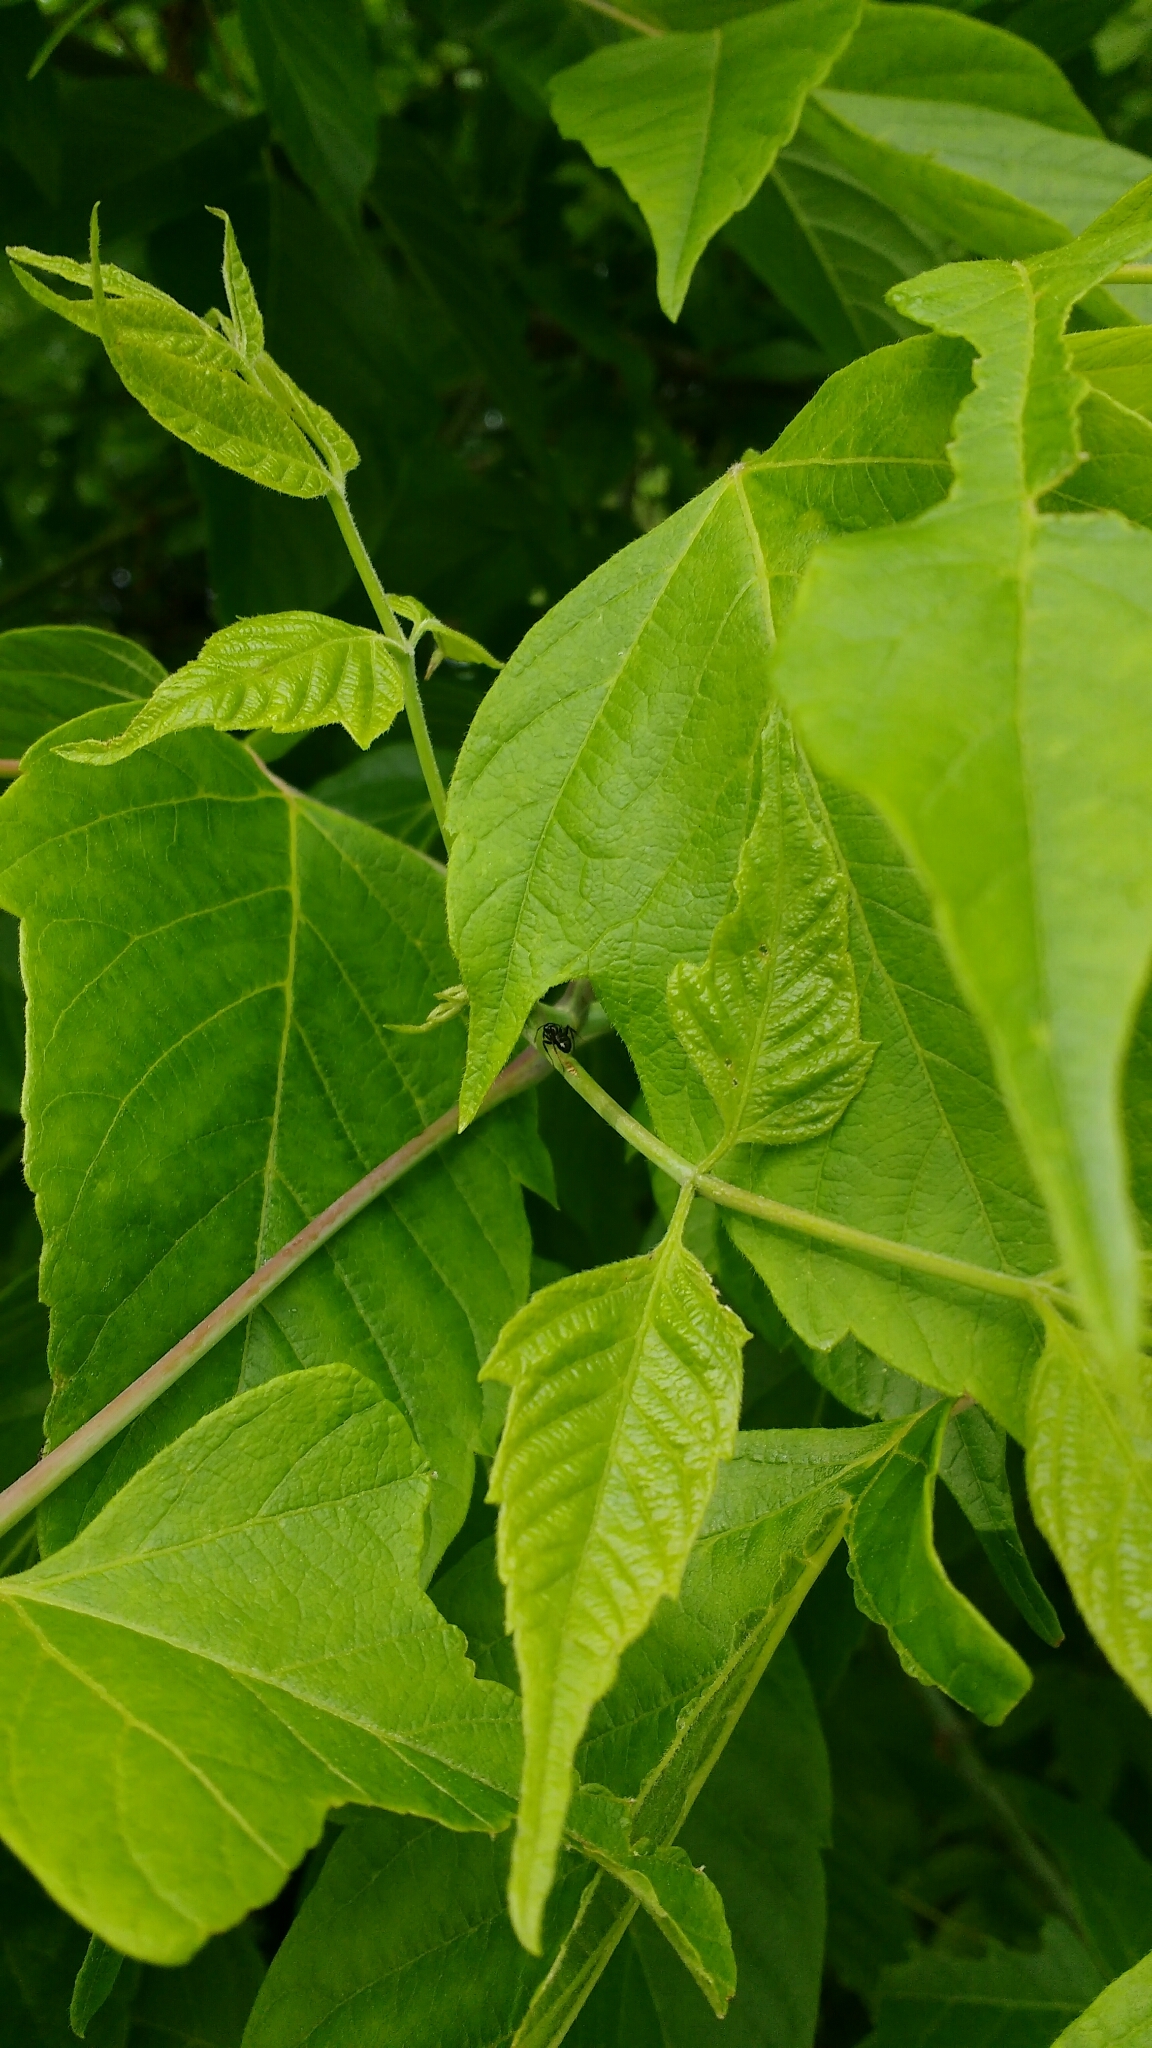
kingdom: Plantae
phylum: Tracheophyta
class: Magnoliopsida
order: Sapindales
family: Sapindaceae
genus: Acer
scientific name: Acer negundo
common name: Ashleaf maple
